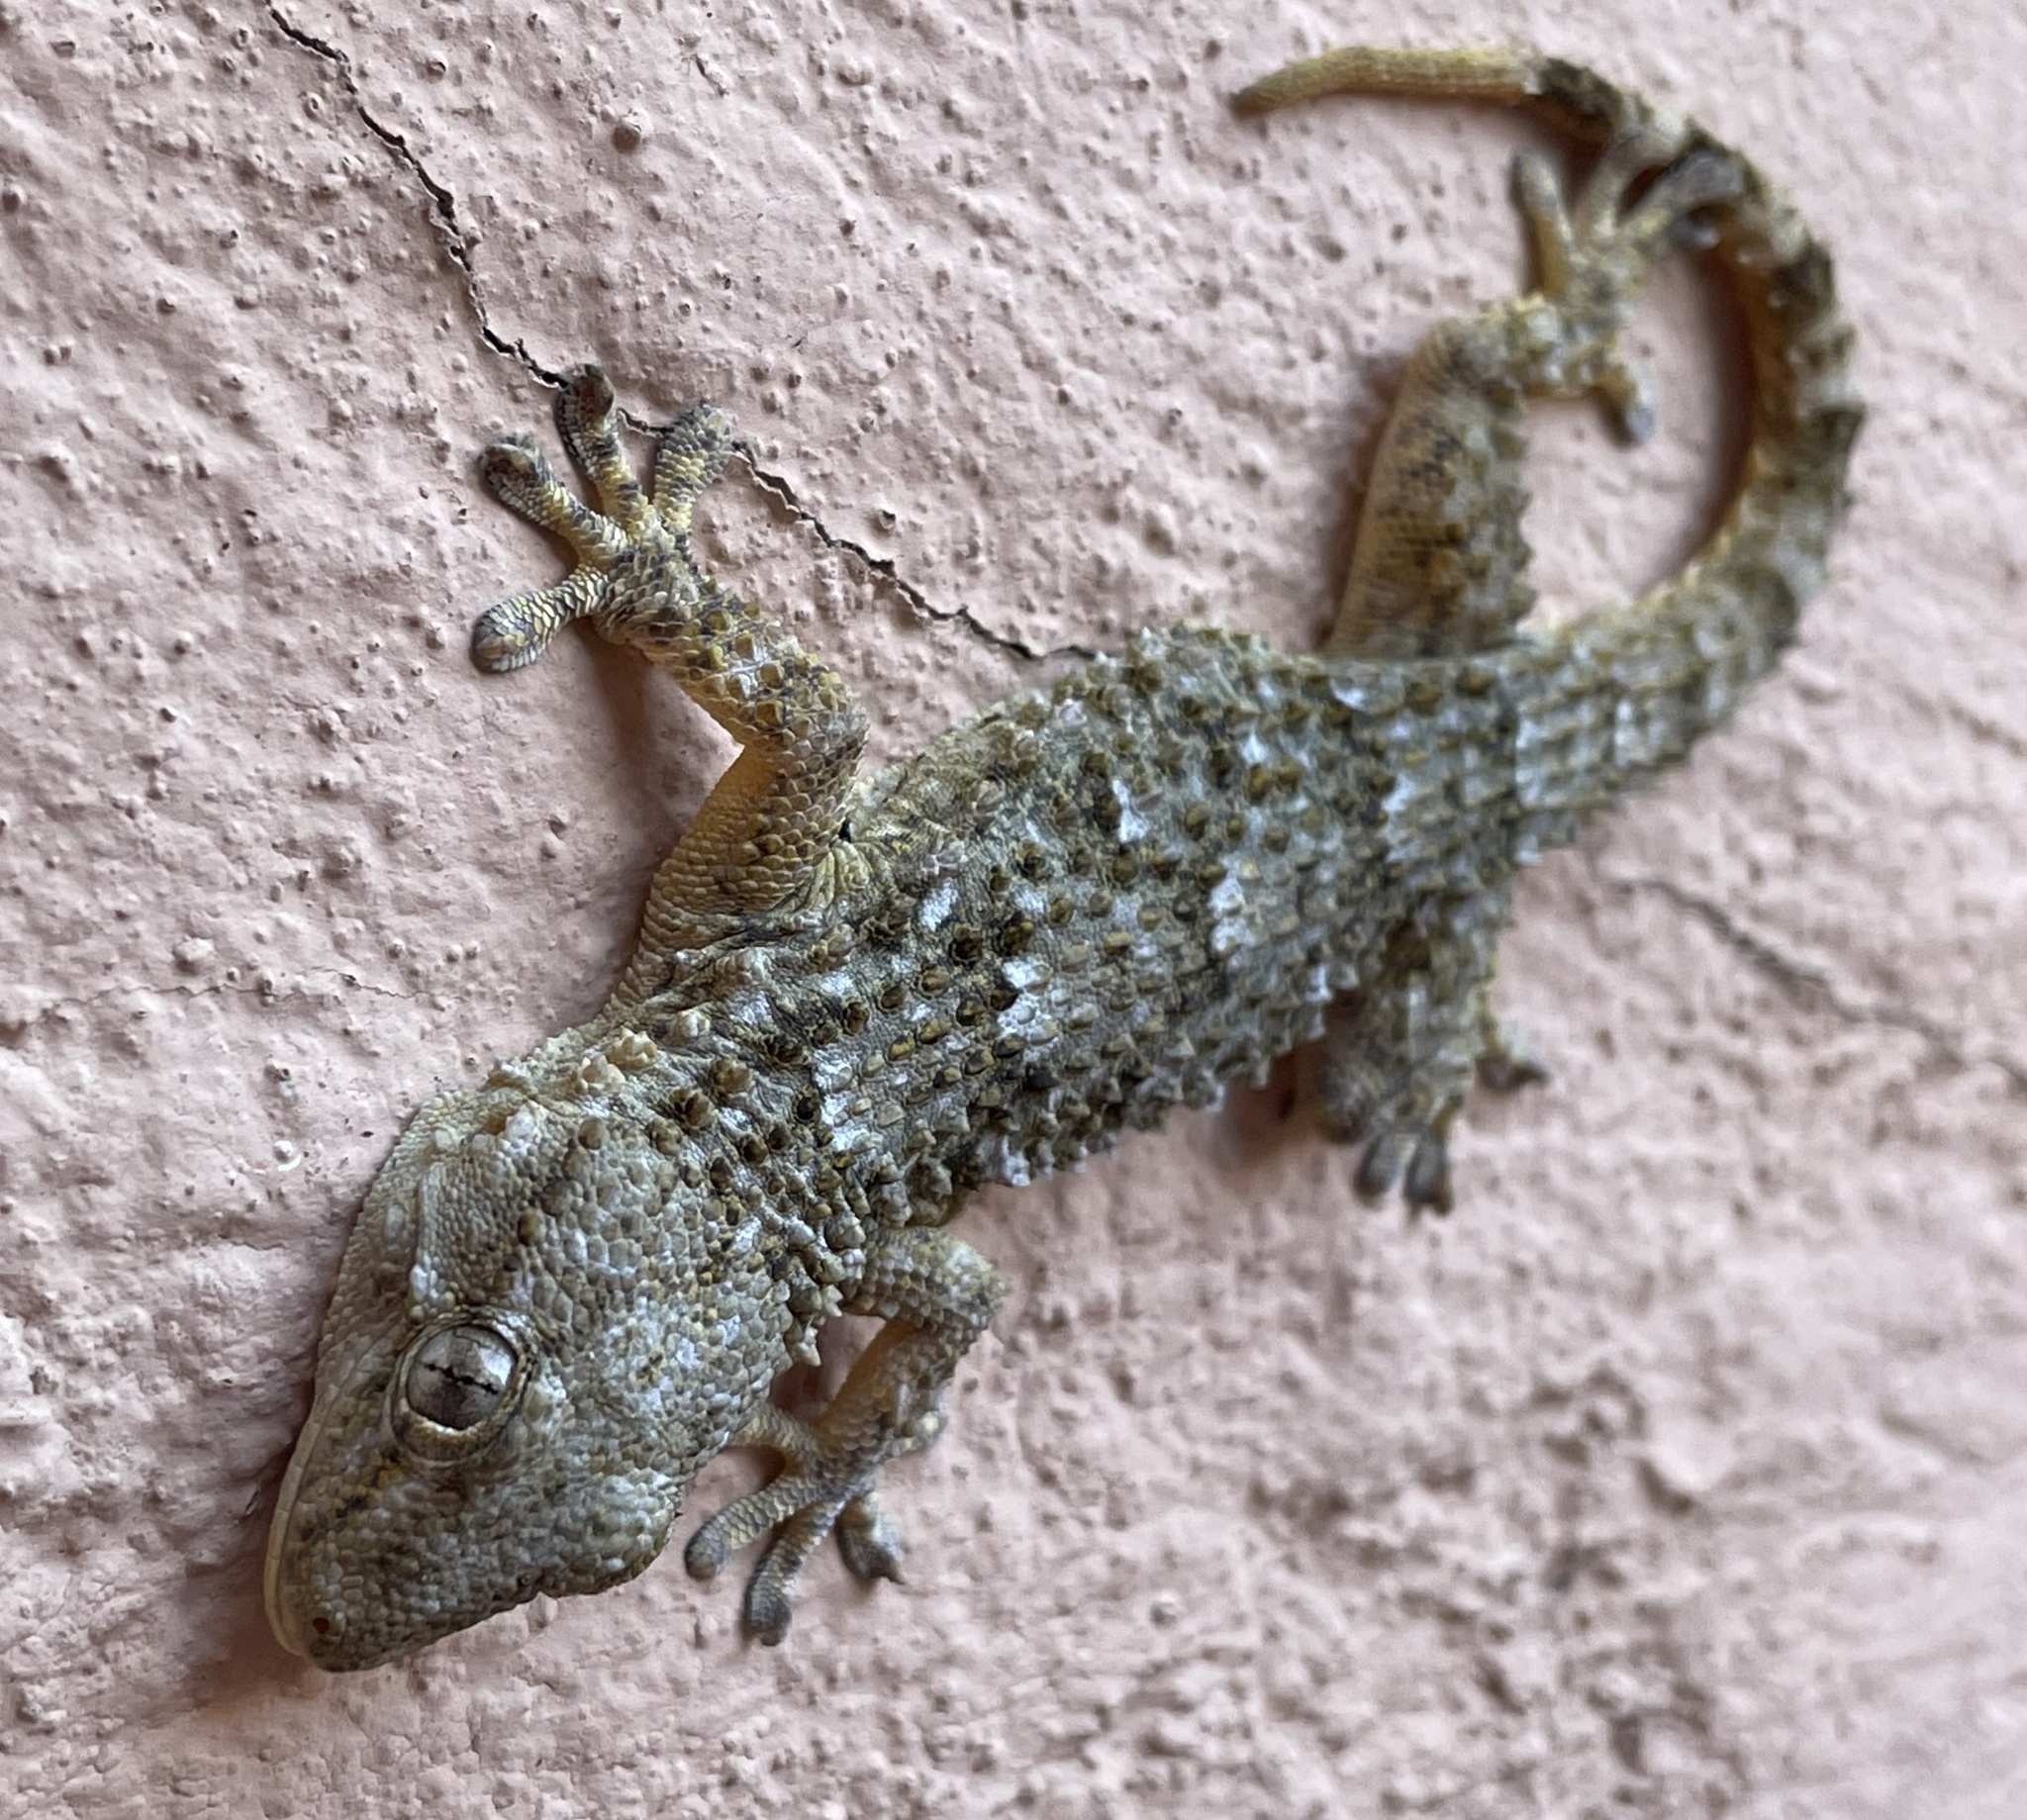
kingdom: Animalia
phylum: Chordata
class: Squamata
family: Phyllodactylidae
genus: Tarentola
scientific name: Tarentola mauritanica
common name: Moorish gecko
